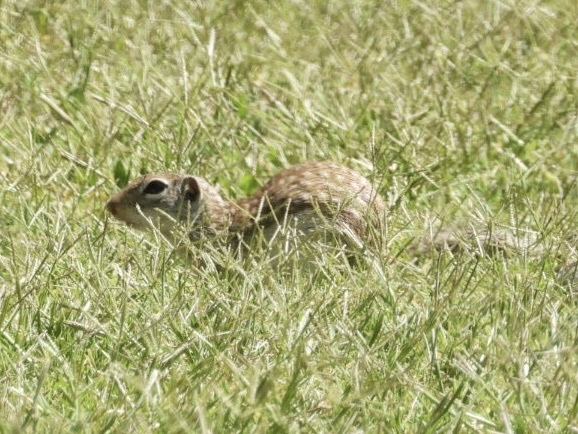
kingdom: Animalia
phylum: Chordata
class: Mammalia
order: Rodentia
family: Sciuridae
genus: Ictidomys
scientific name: Ictidomys parvidens
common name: Rio grande ground squirrel
